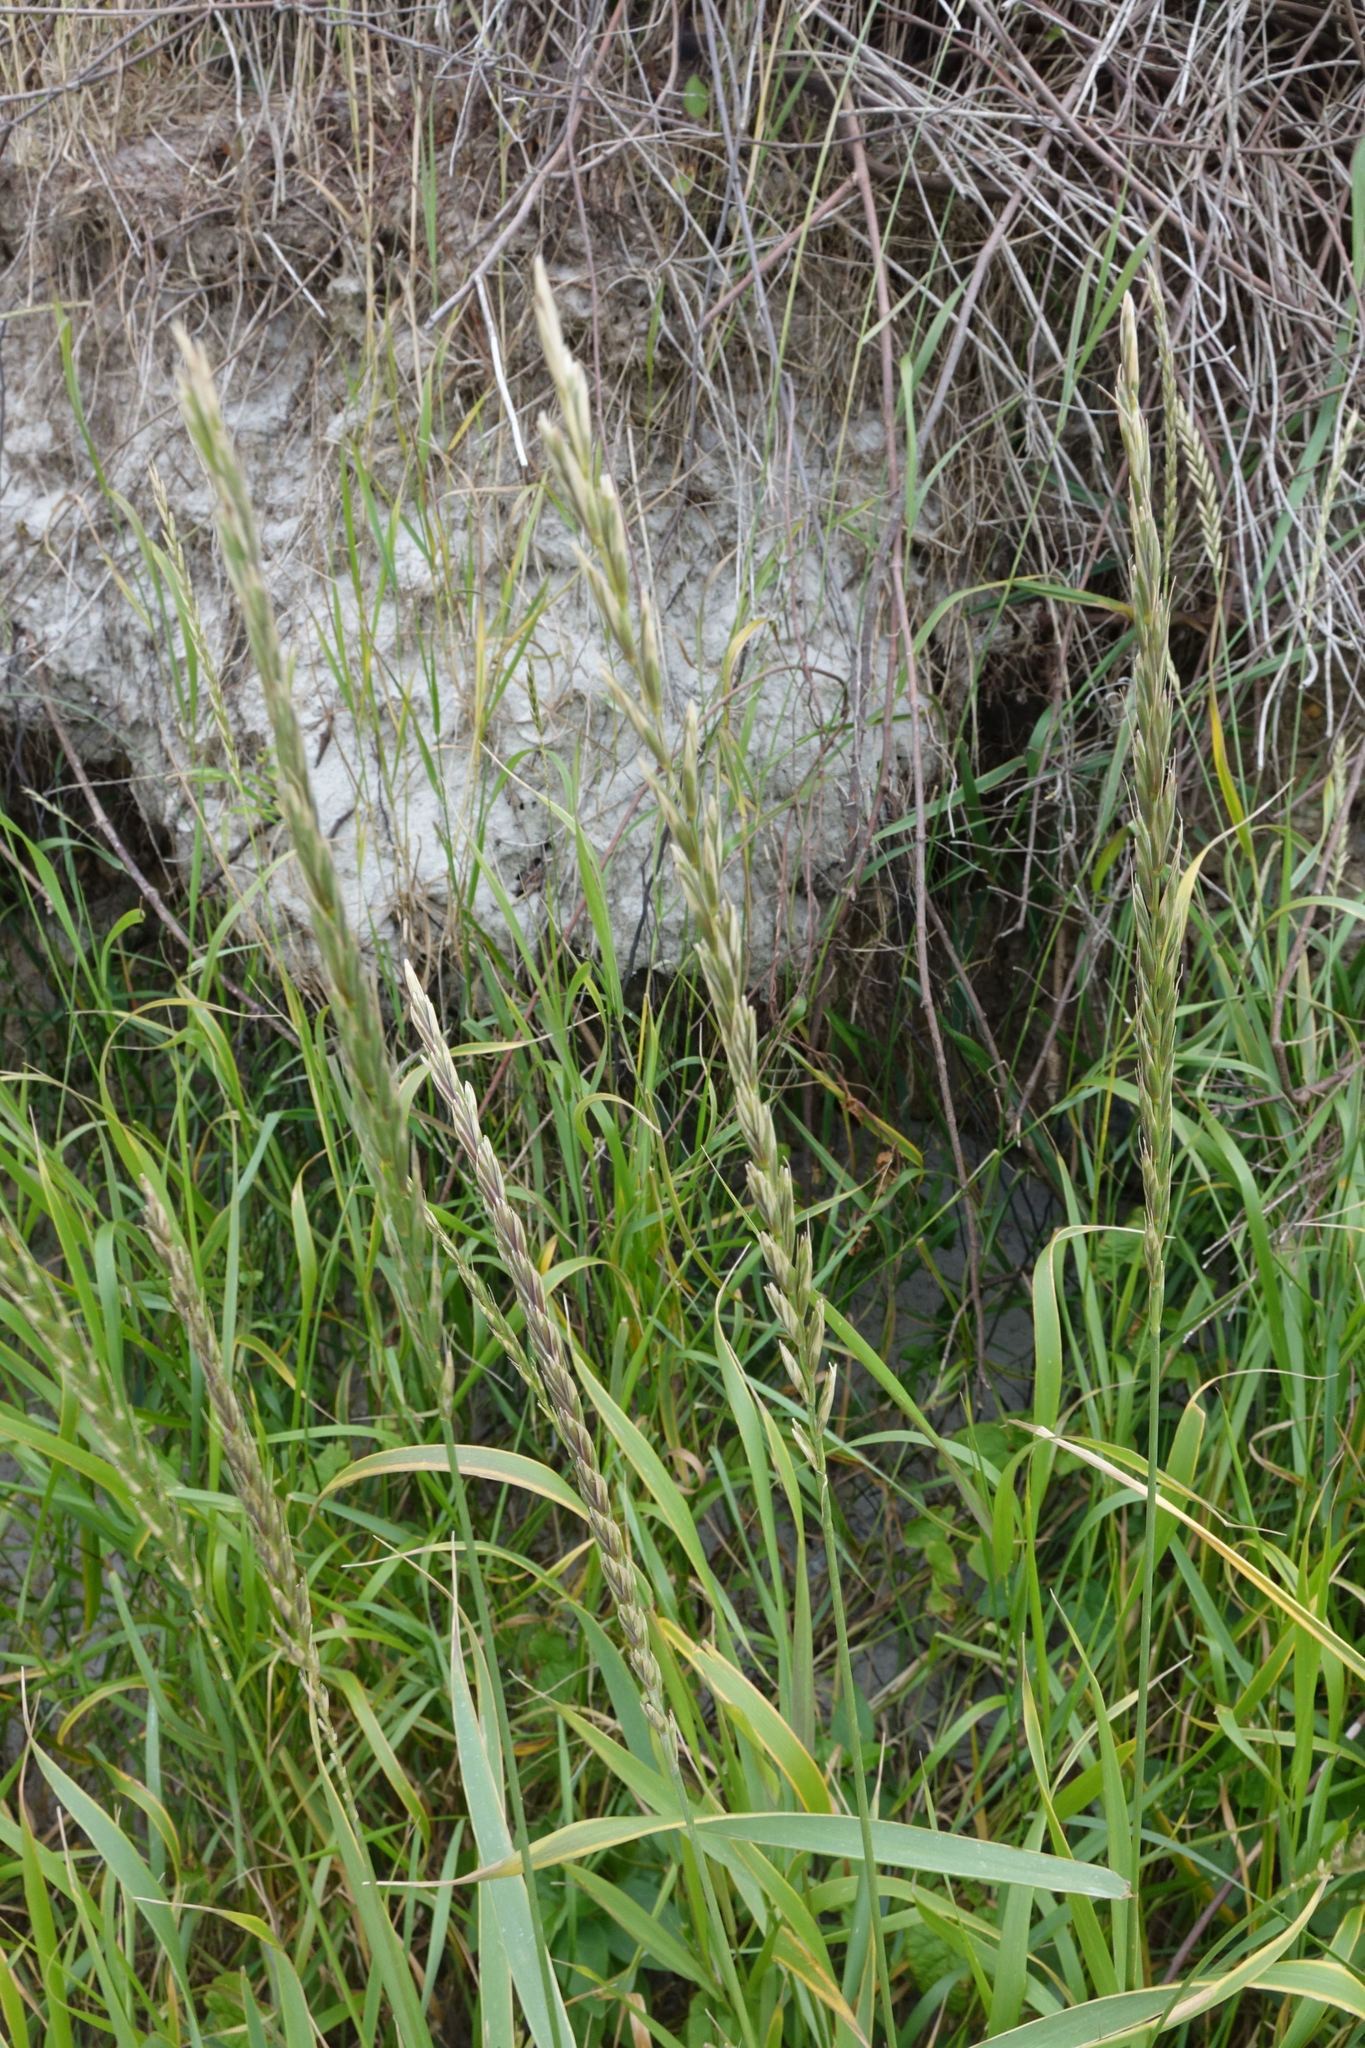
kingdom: Plantae
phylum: Tracheophyta
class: Liliopsida
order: Poales
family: Poaceae
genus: Elymus
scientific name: Elymus repens
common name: Quackgrass
